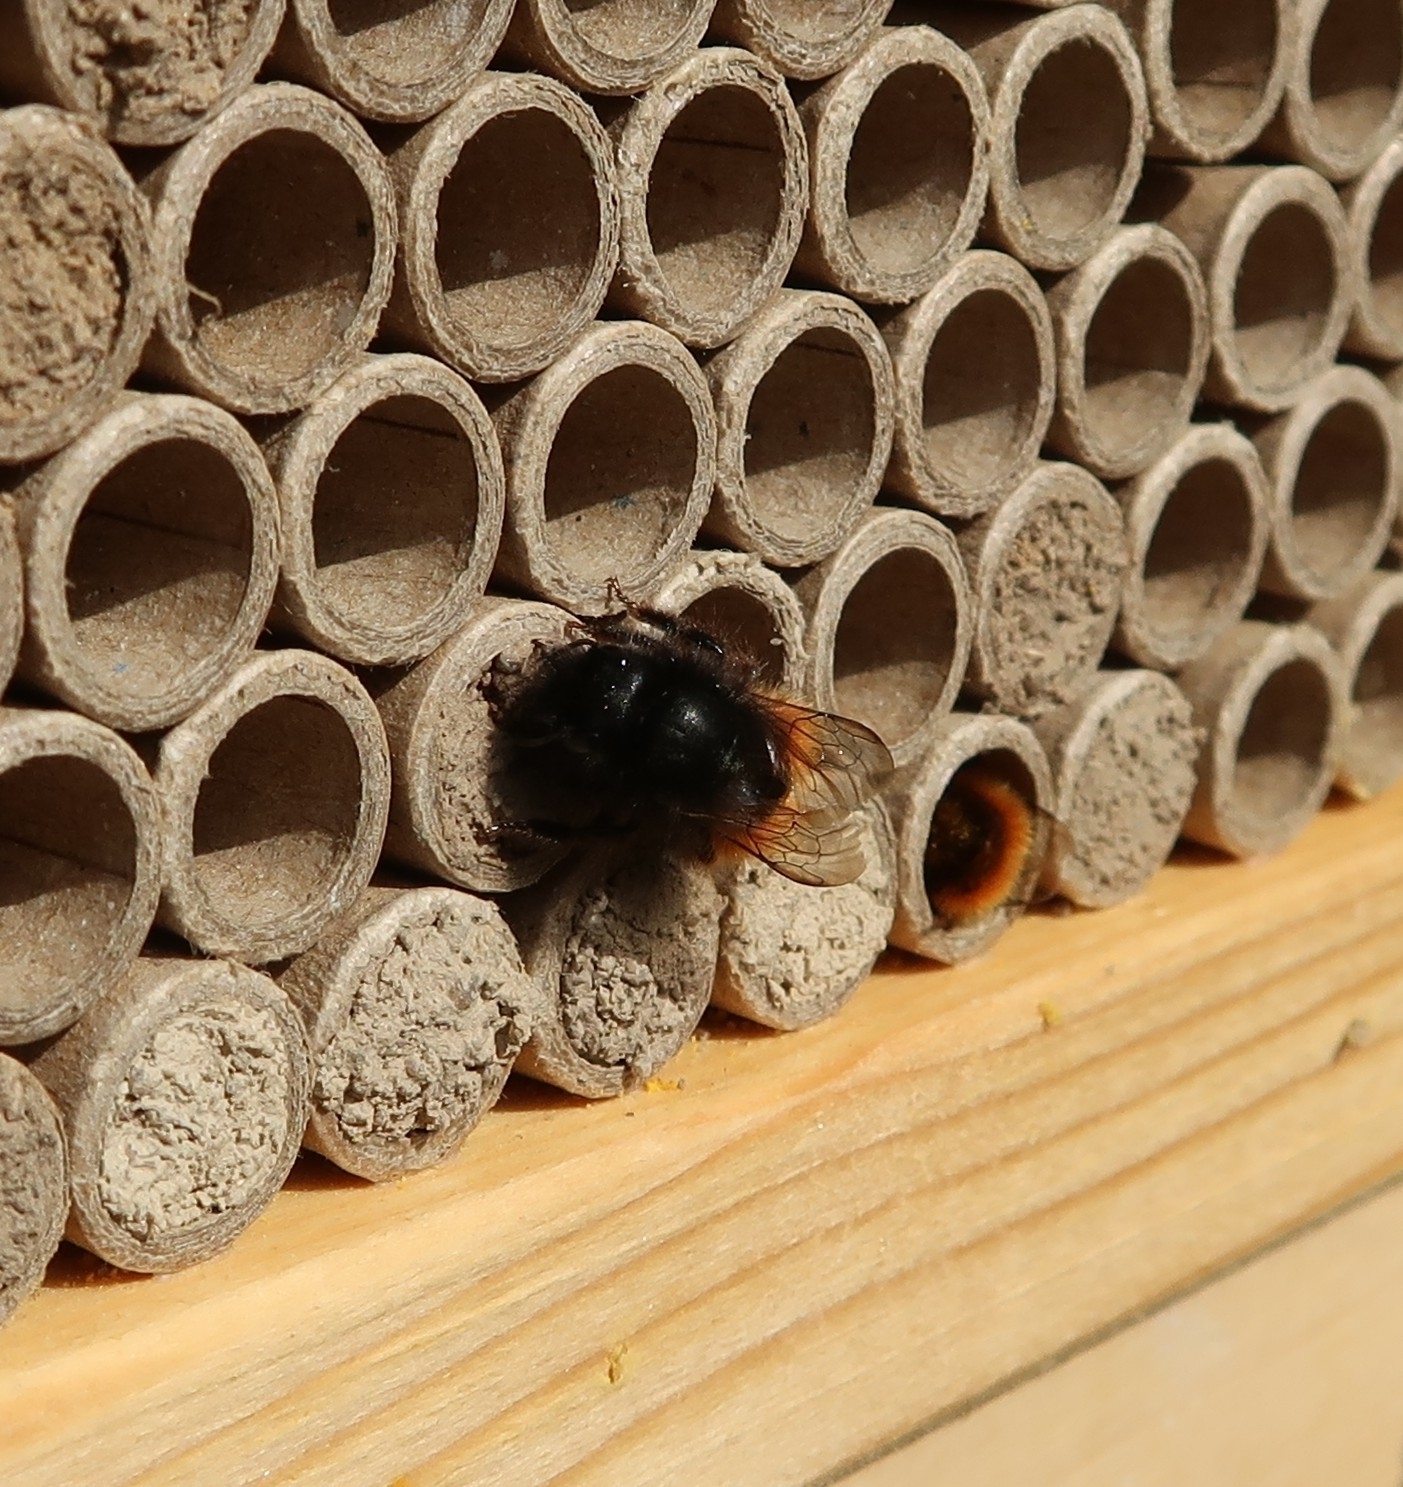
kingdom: Animalia
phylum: Arthropoda
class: Insecta
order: Hymenoptera
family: Megachilidae
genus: Osmia
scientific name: Osmia cornuta
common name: Mason bee
